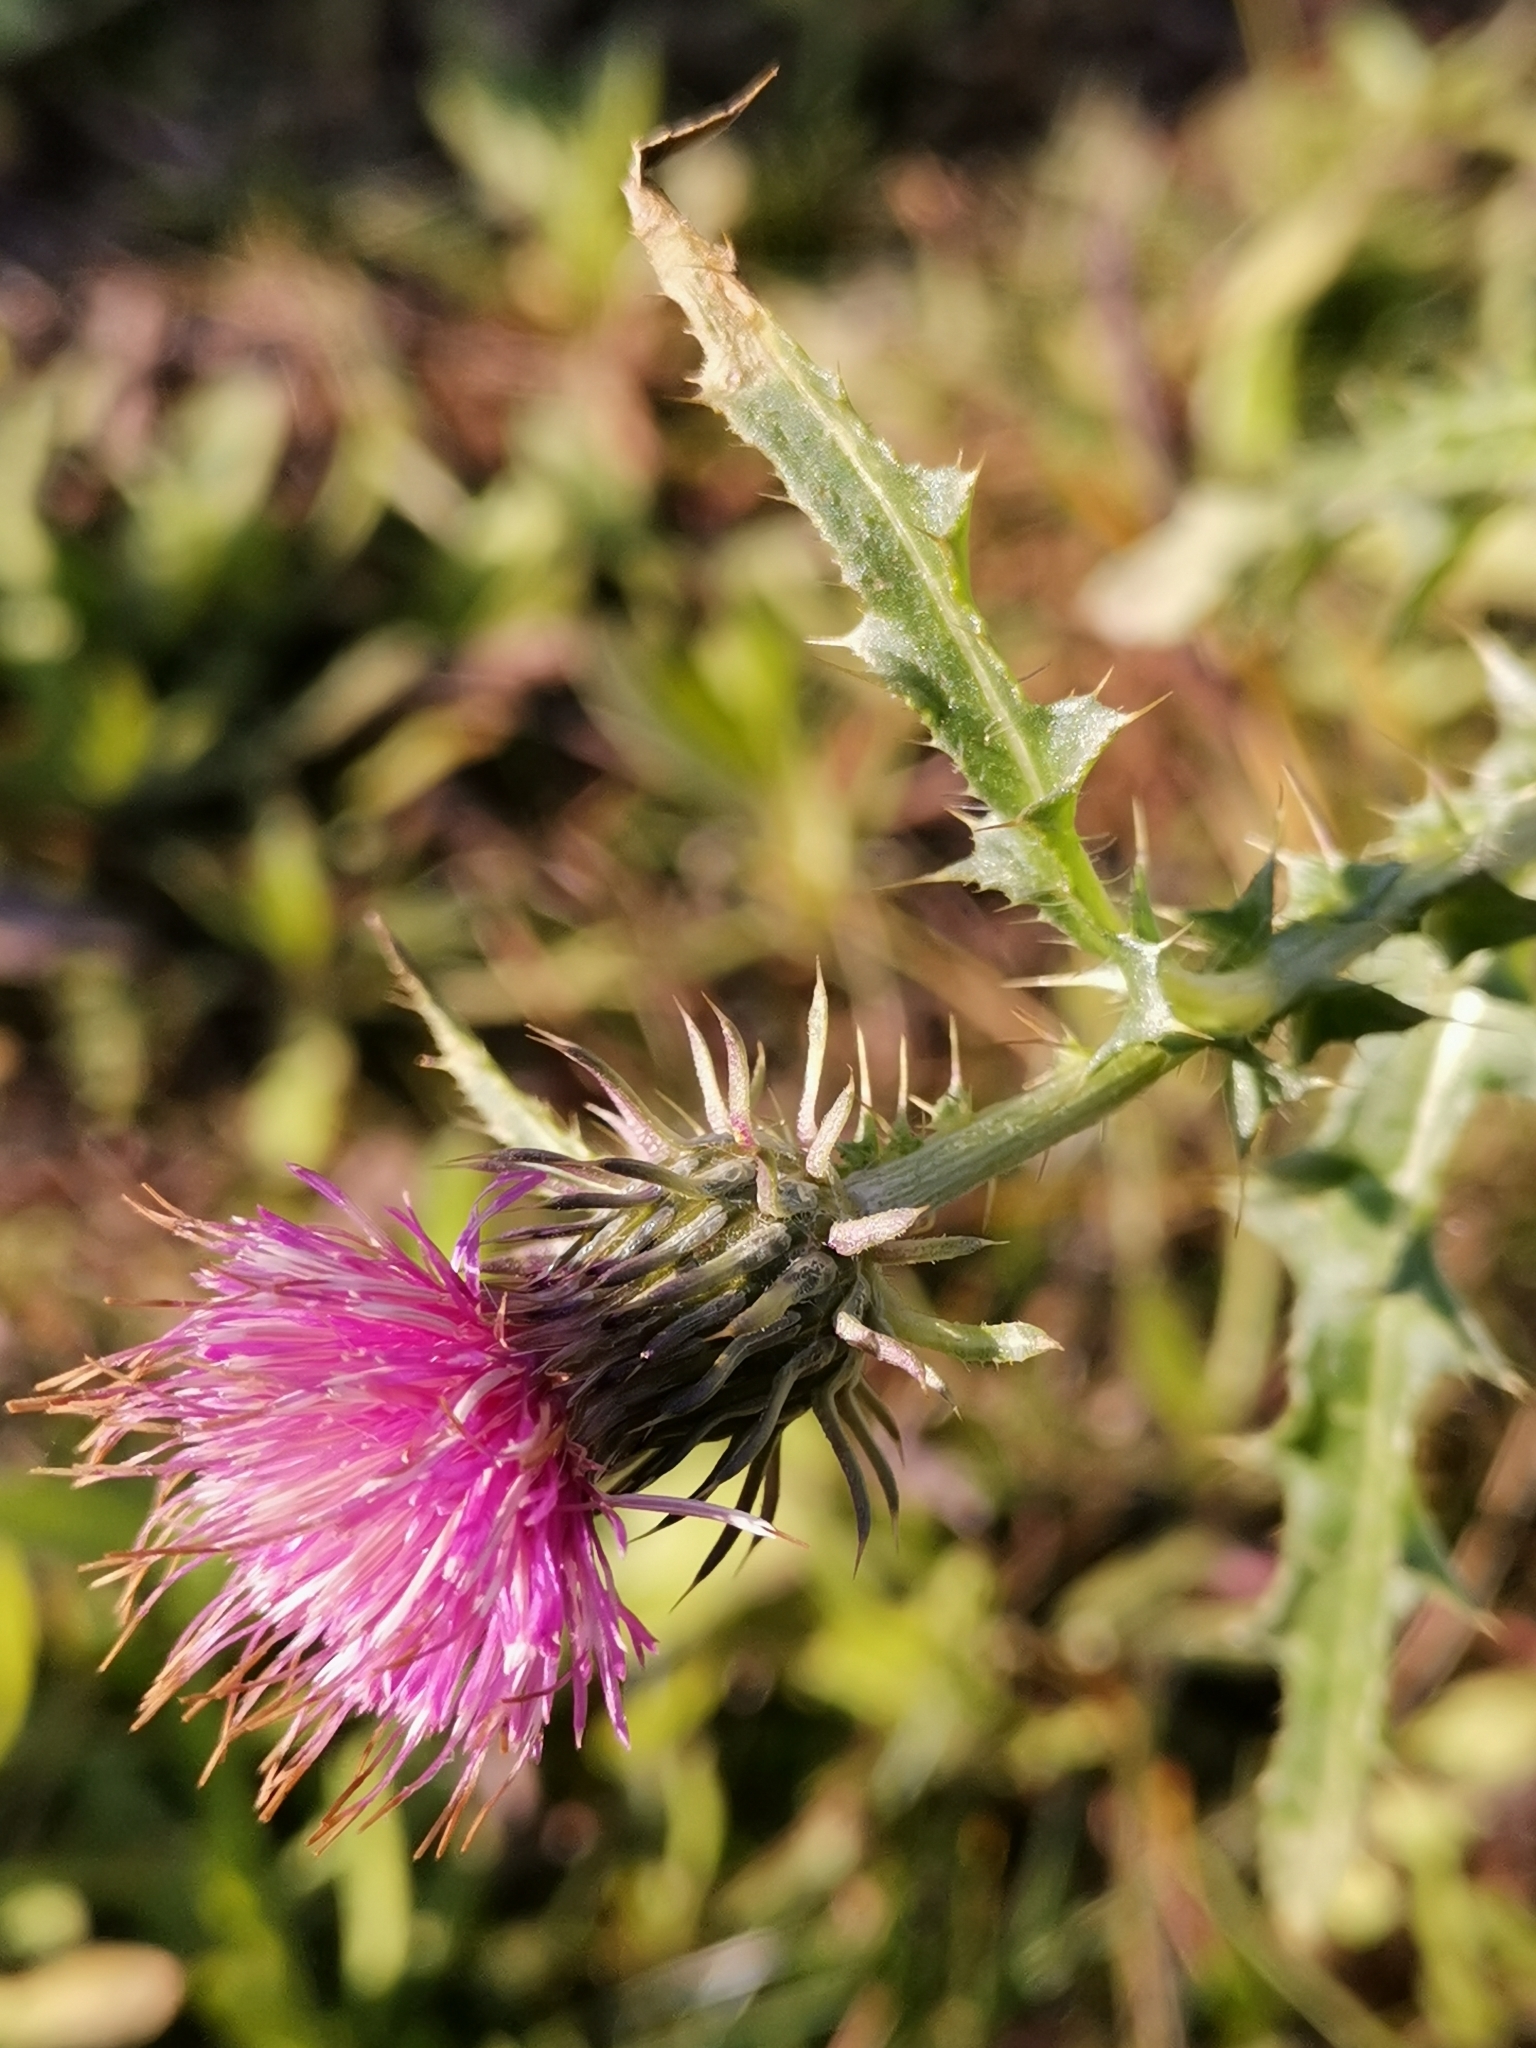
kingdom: Plantae
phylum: Tracheophyta
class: Magnoliopsida
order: Asterales
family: Asteraceae
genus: Carduus
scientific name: Carduus acanthoides
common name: Plumeless thistle
